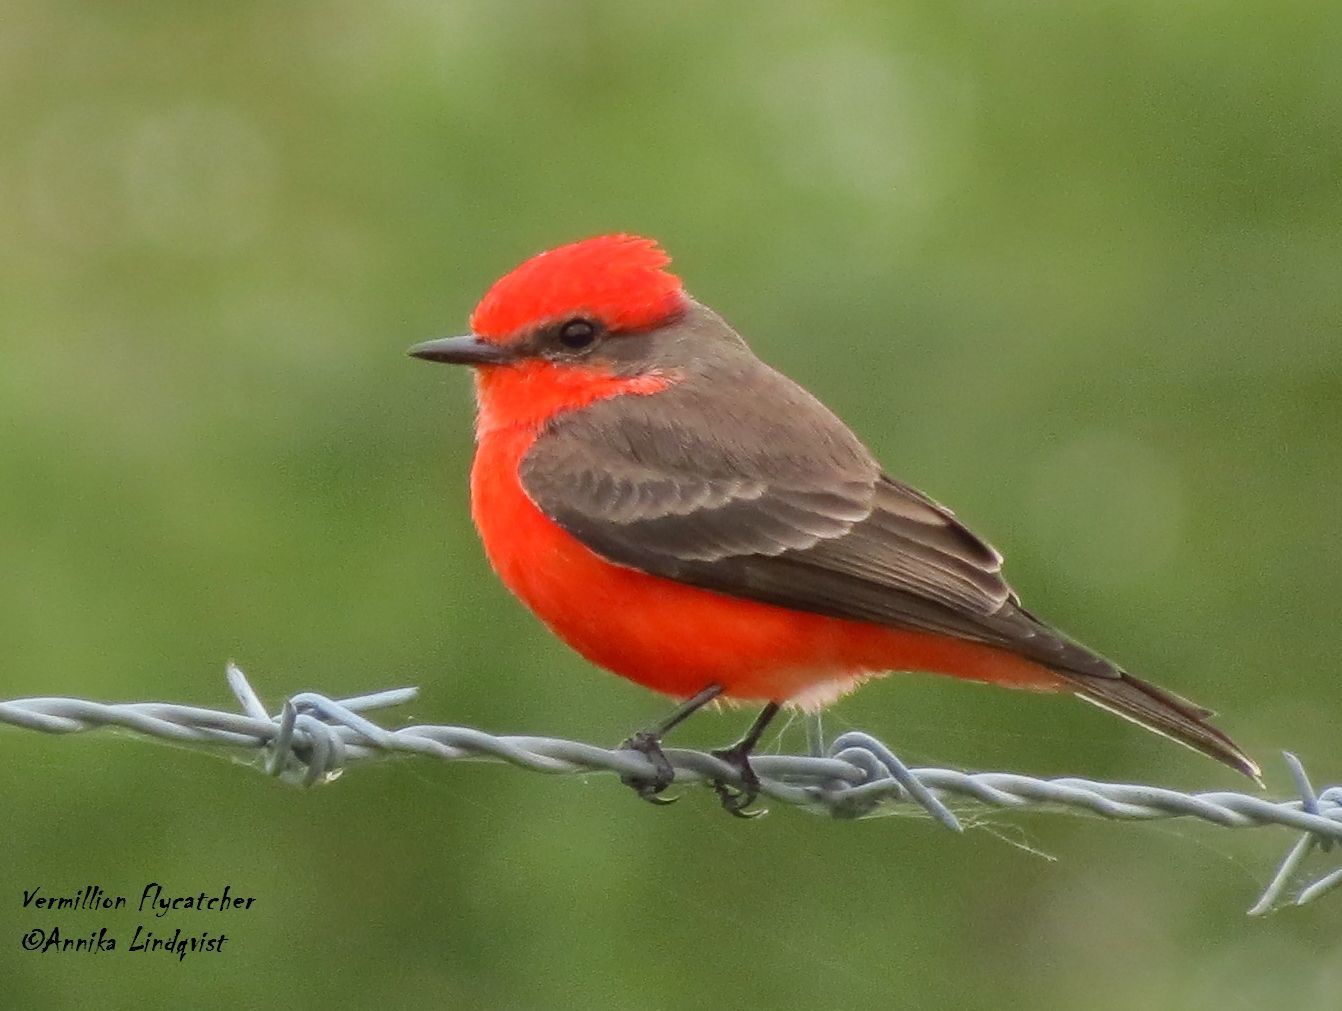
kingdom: Animalia
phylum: Chordata
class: Aves
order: Passeriformes
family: Tyrannidae
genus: Pyrocephalus
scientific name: Pyrocephalus rubinus
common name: Vermilion flycatcher
